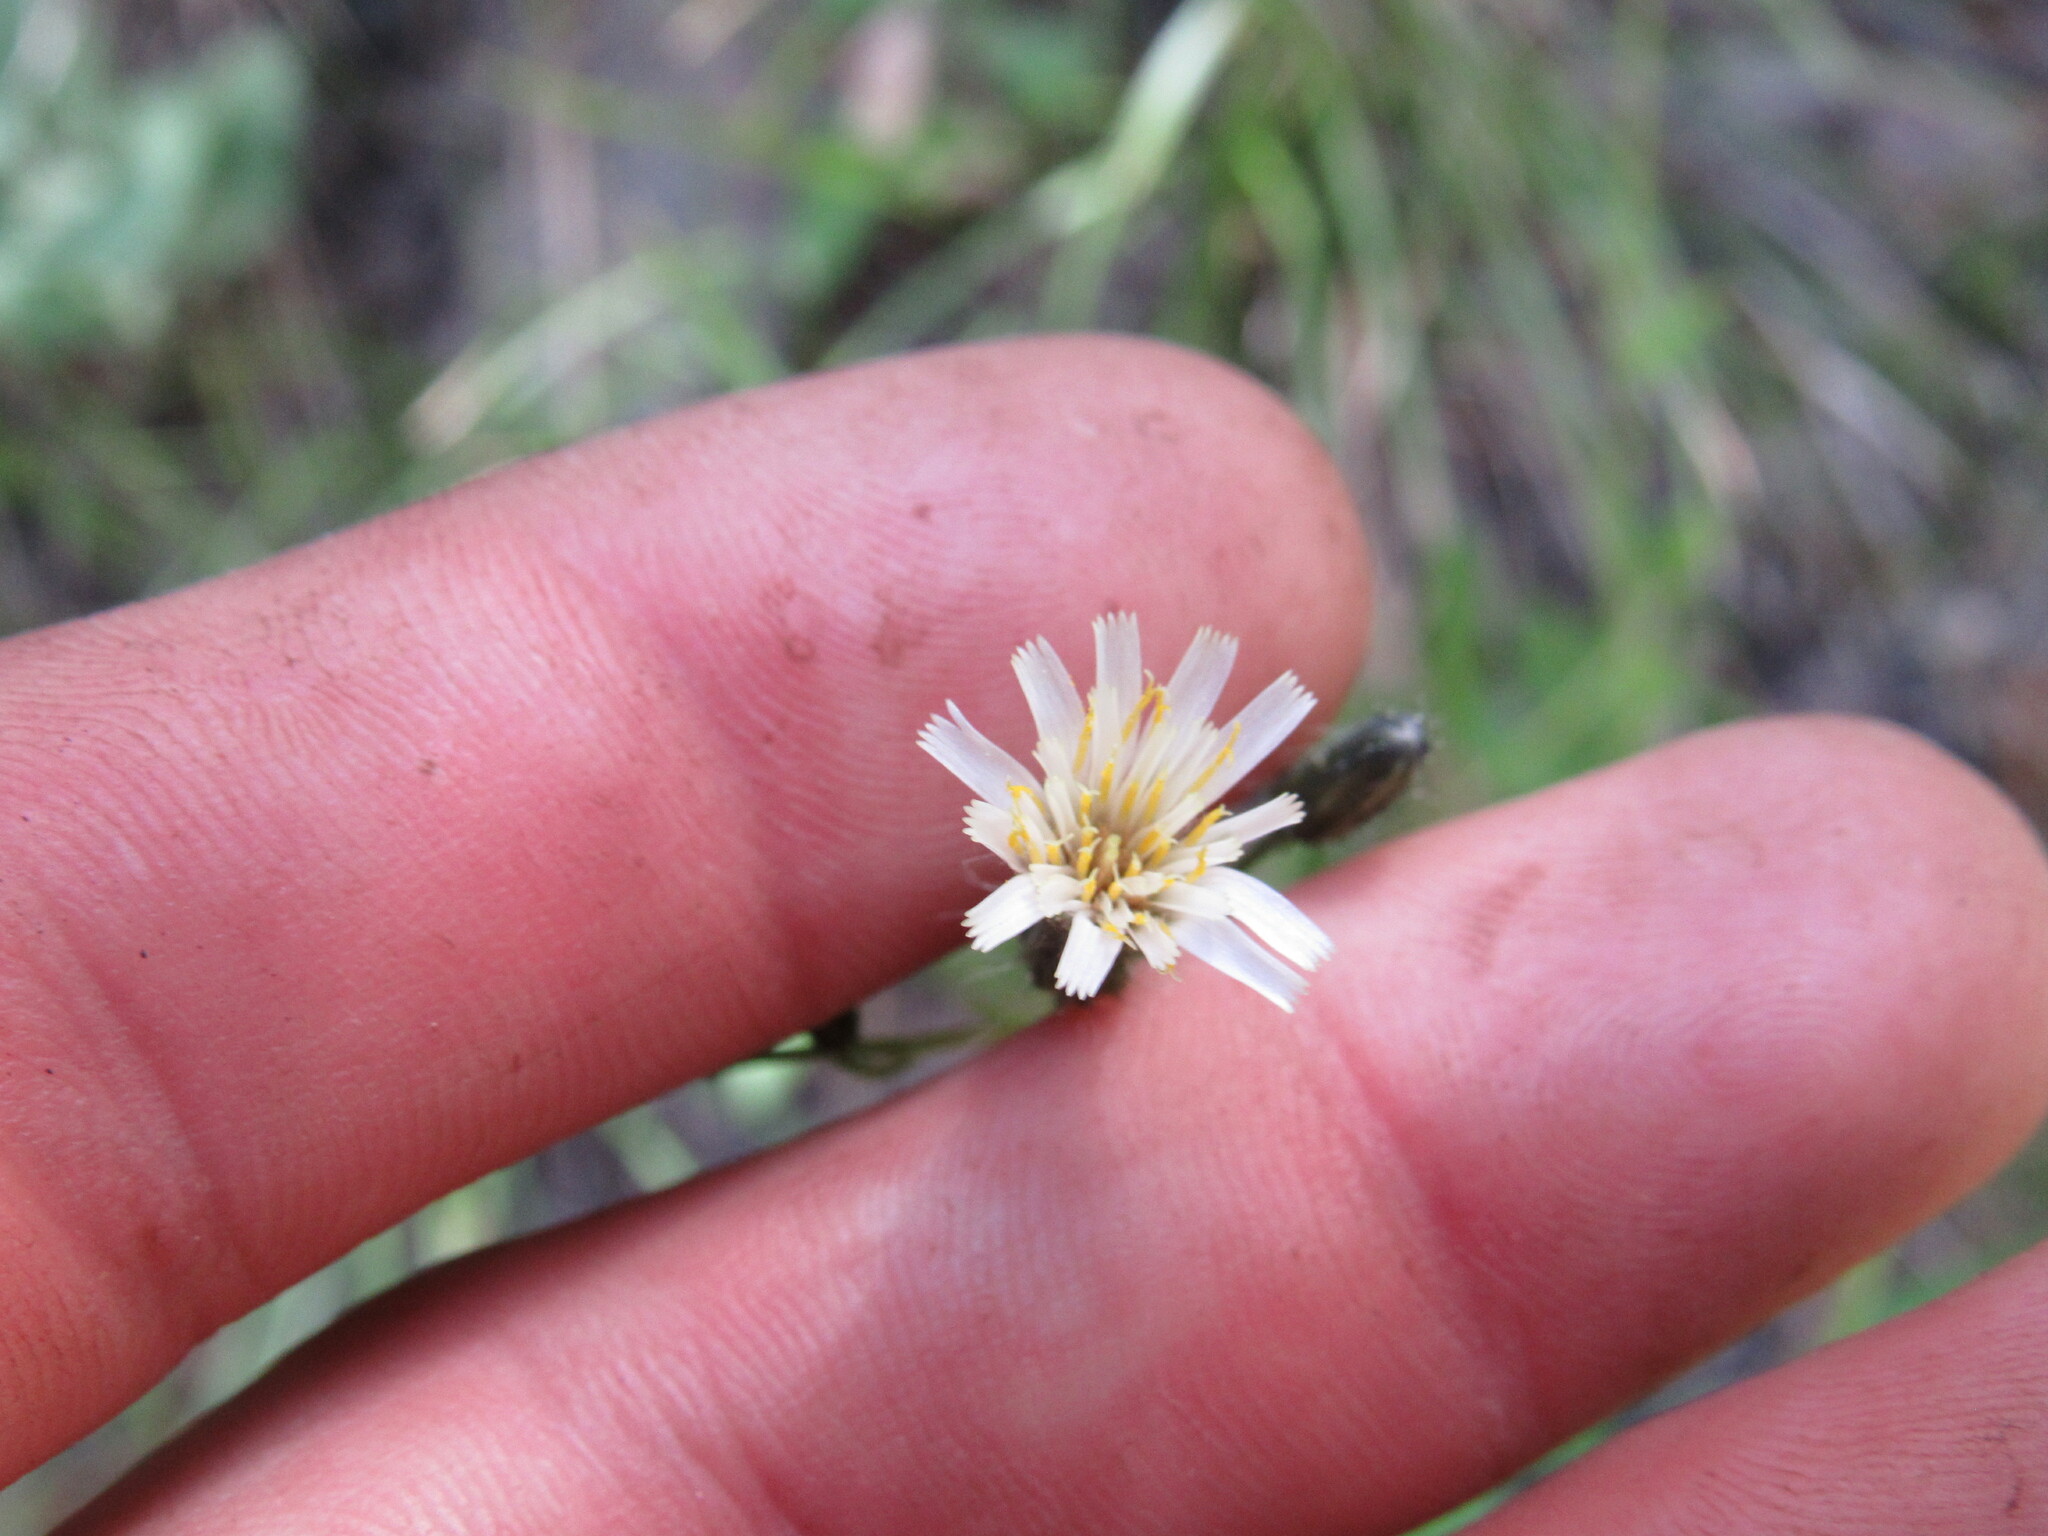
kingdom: Plantae
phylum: Tracheophyta
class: Magnoliopsida
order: Asterales
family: Asteraceae
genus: Hieracium
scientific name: Hieracium albiflorum
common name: White hawkweed
